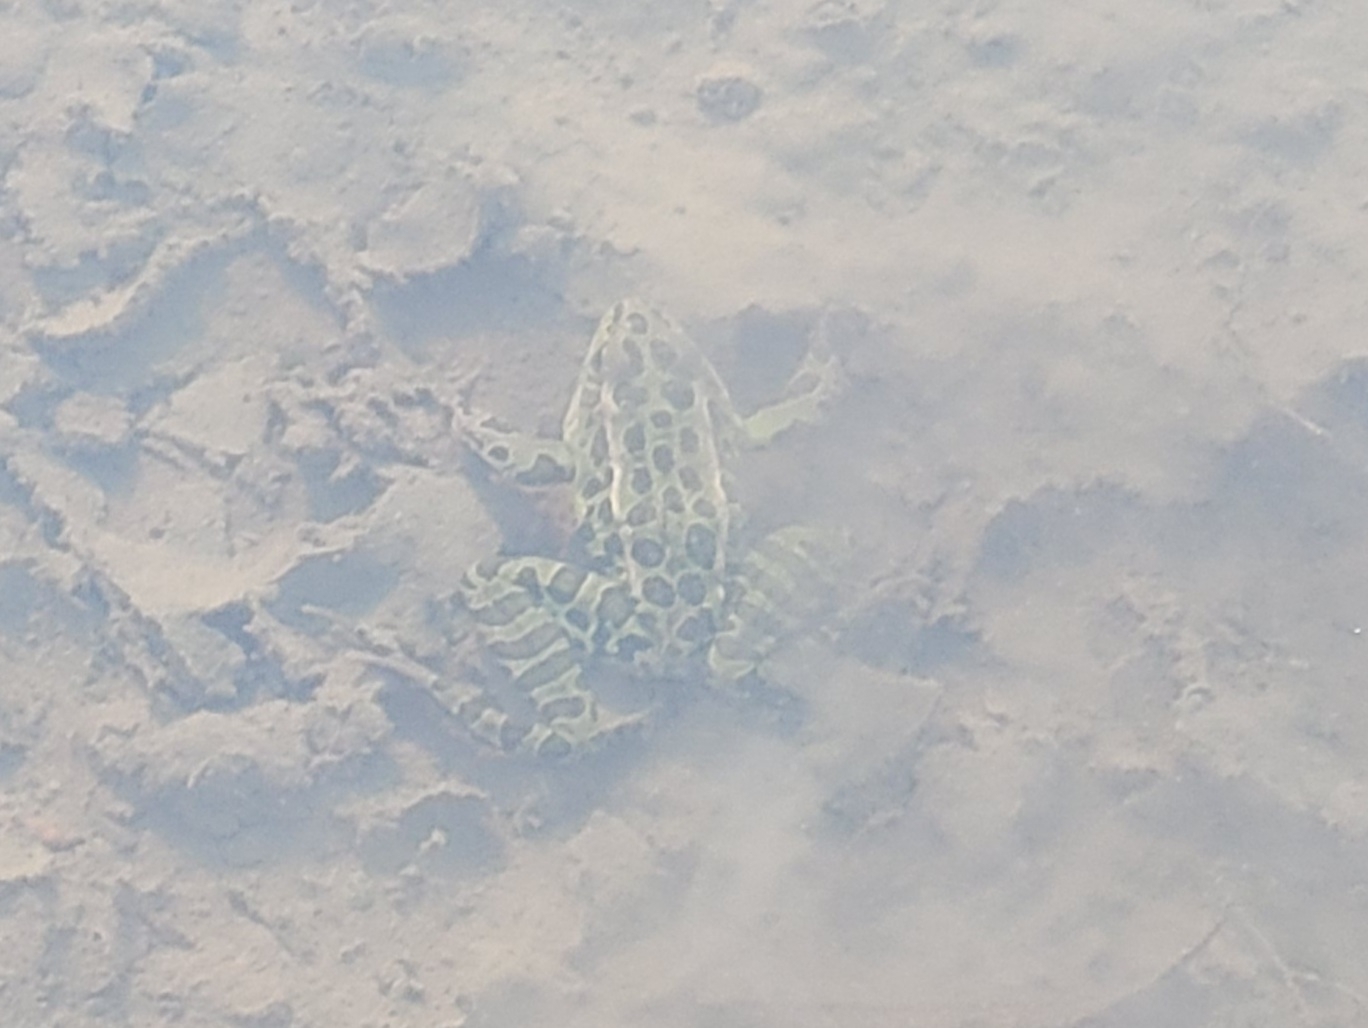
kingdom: Animalia
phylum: Chordata
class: Amphibia
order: Anura
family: Ranidae
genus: Lithobates
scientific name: Lithobates pipiens
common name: Northern leopard frog
